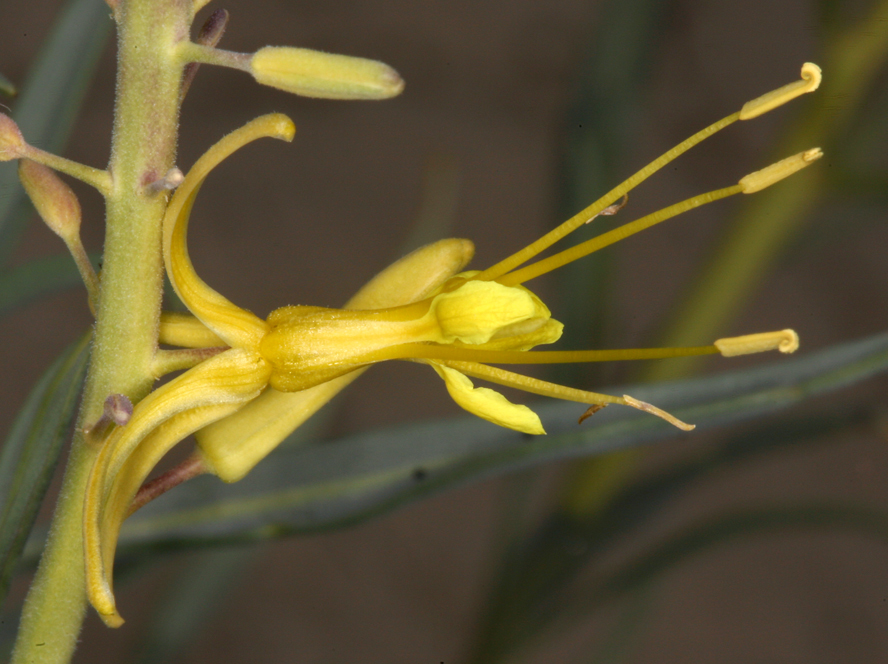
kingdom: Plantae
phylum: Tracheophyta
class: Magnoliopsida
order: Brassicales
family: Brassicaceae
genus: Stanleya
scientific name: Stanleya pinnata
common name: Prince's-plume
